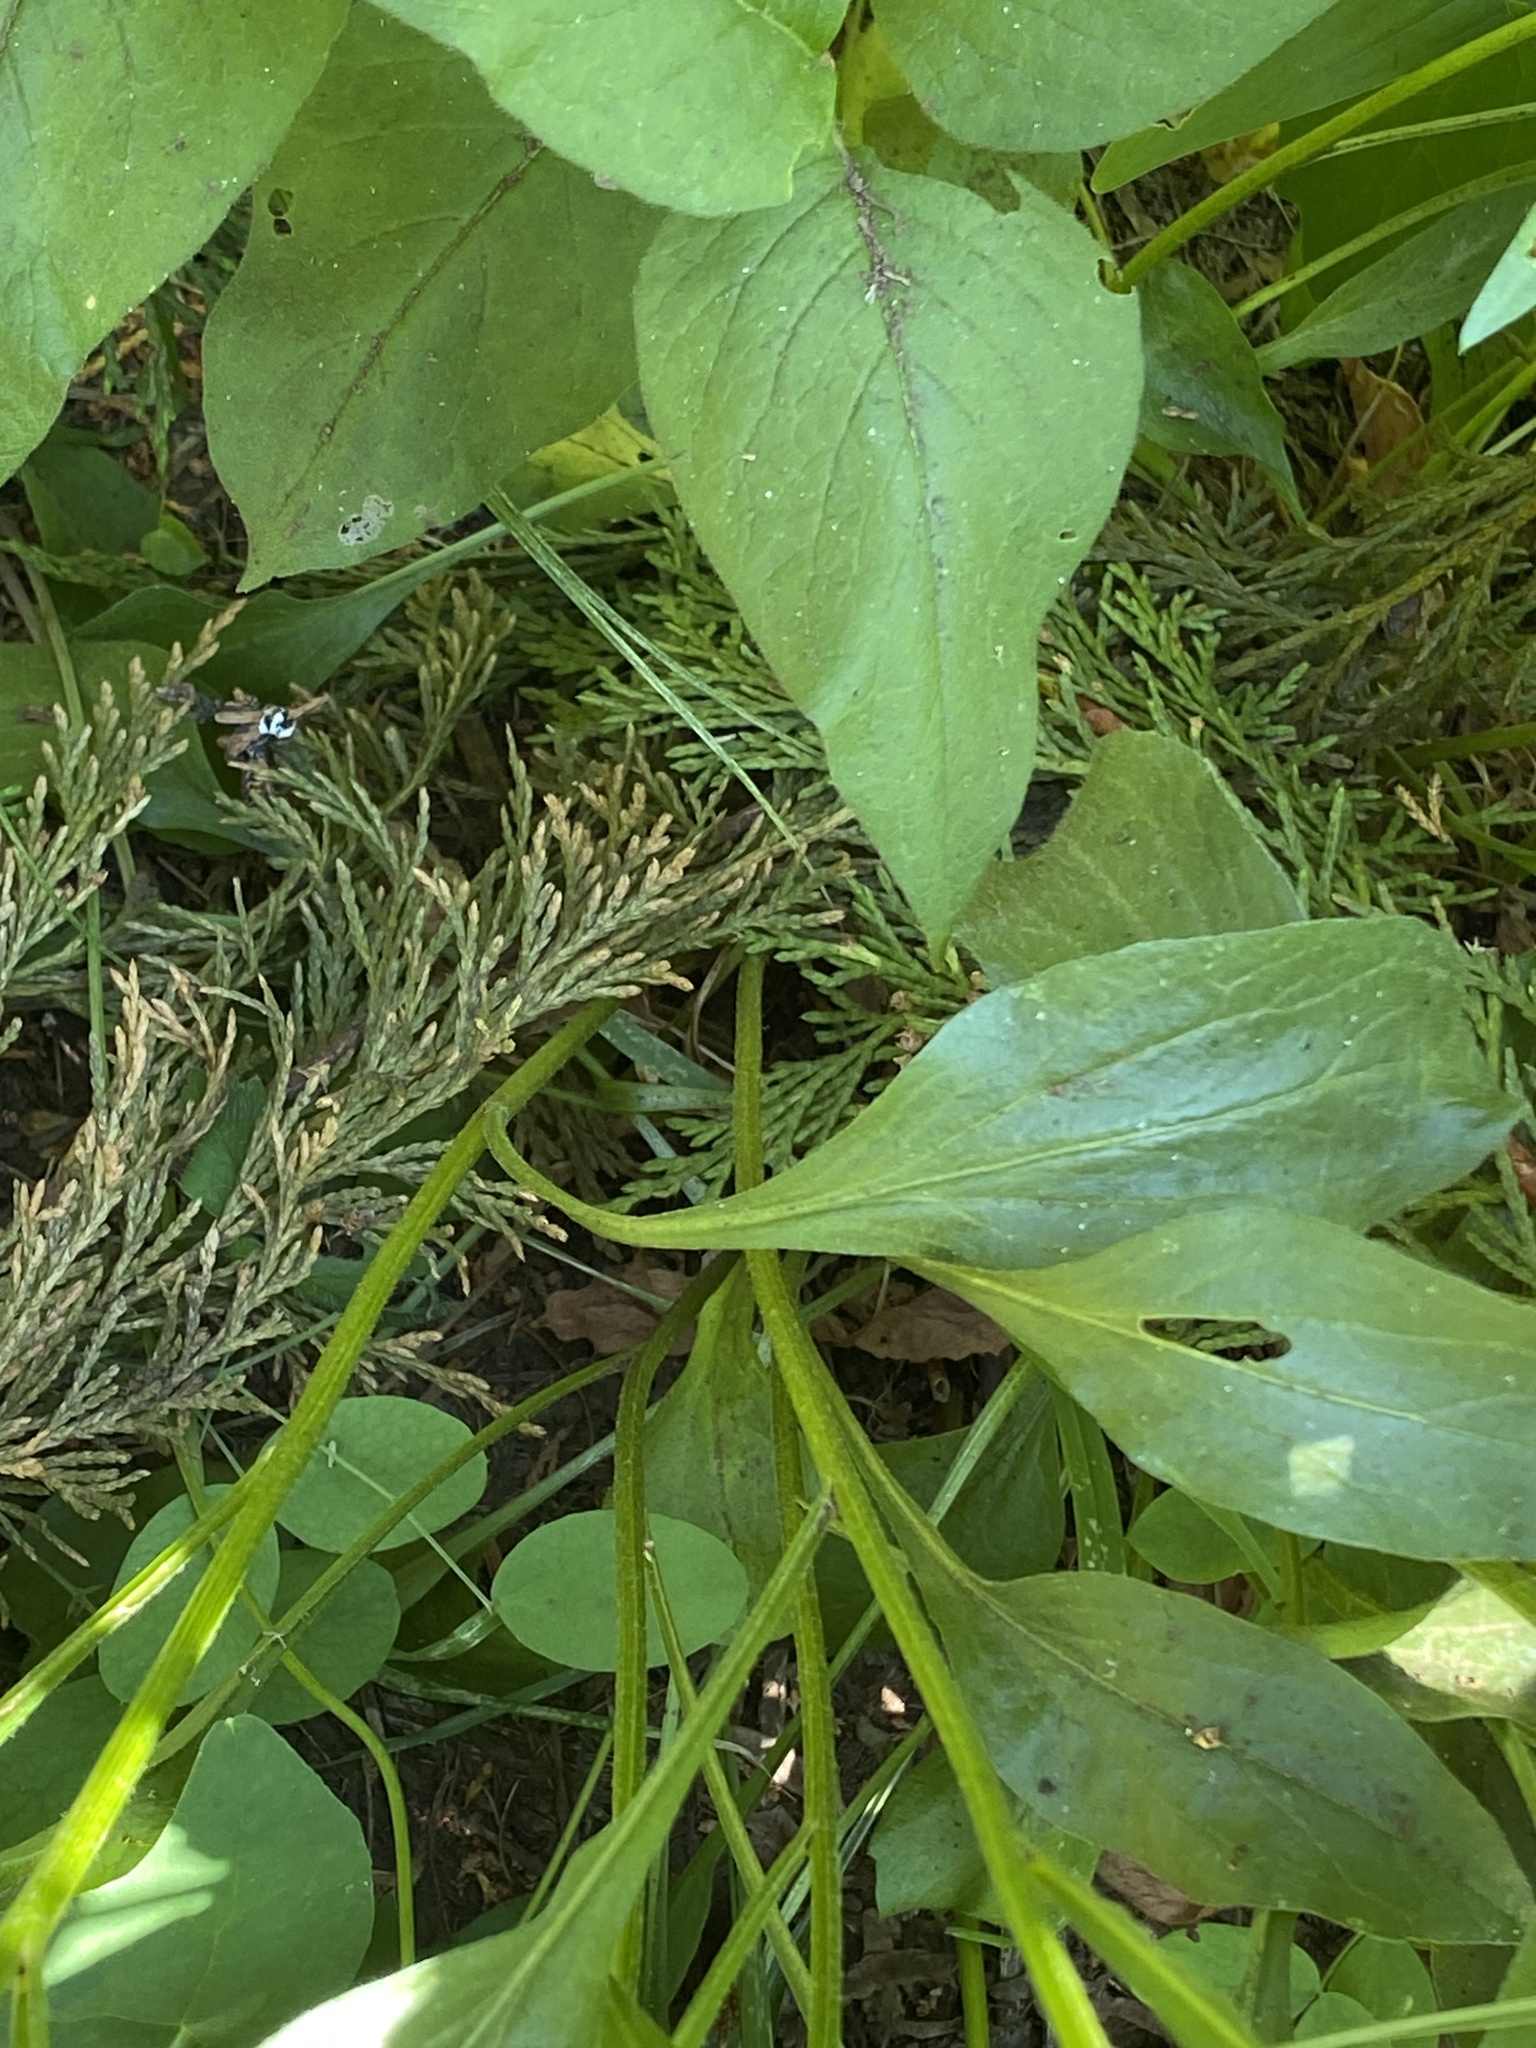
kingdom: Plantae
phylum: Tracheophyta
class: Magnoliopsida
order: Asterales
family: Asteraceae
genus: Erigeron
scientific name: Erigeron aliceae
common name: Alice eastwood's fleabane
